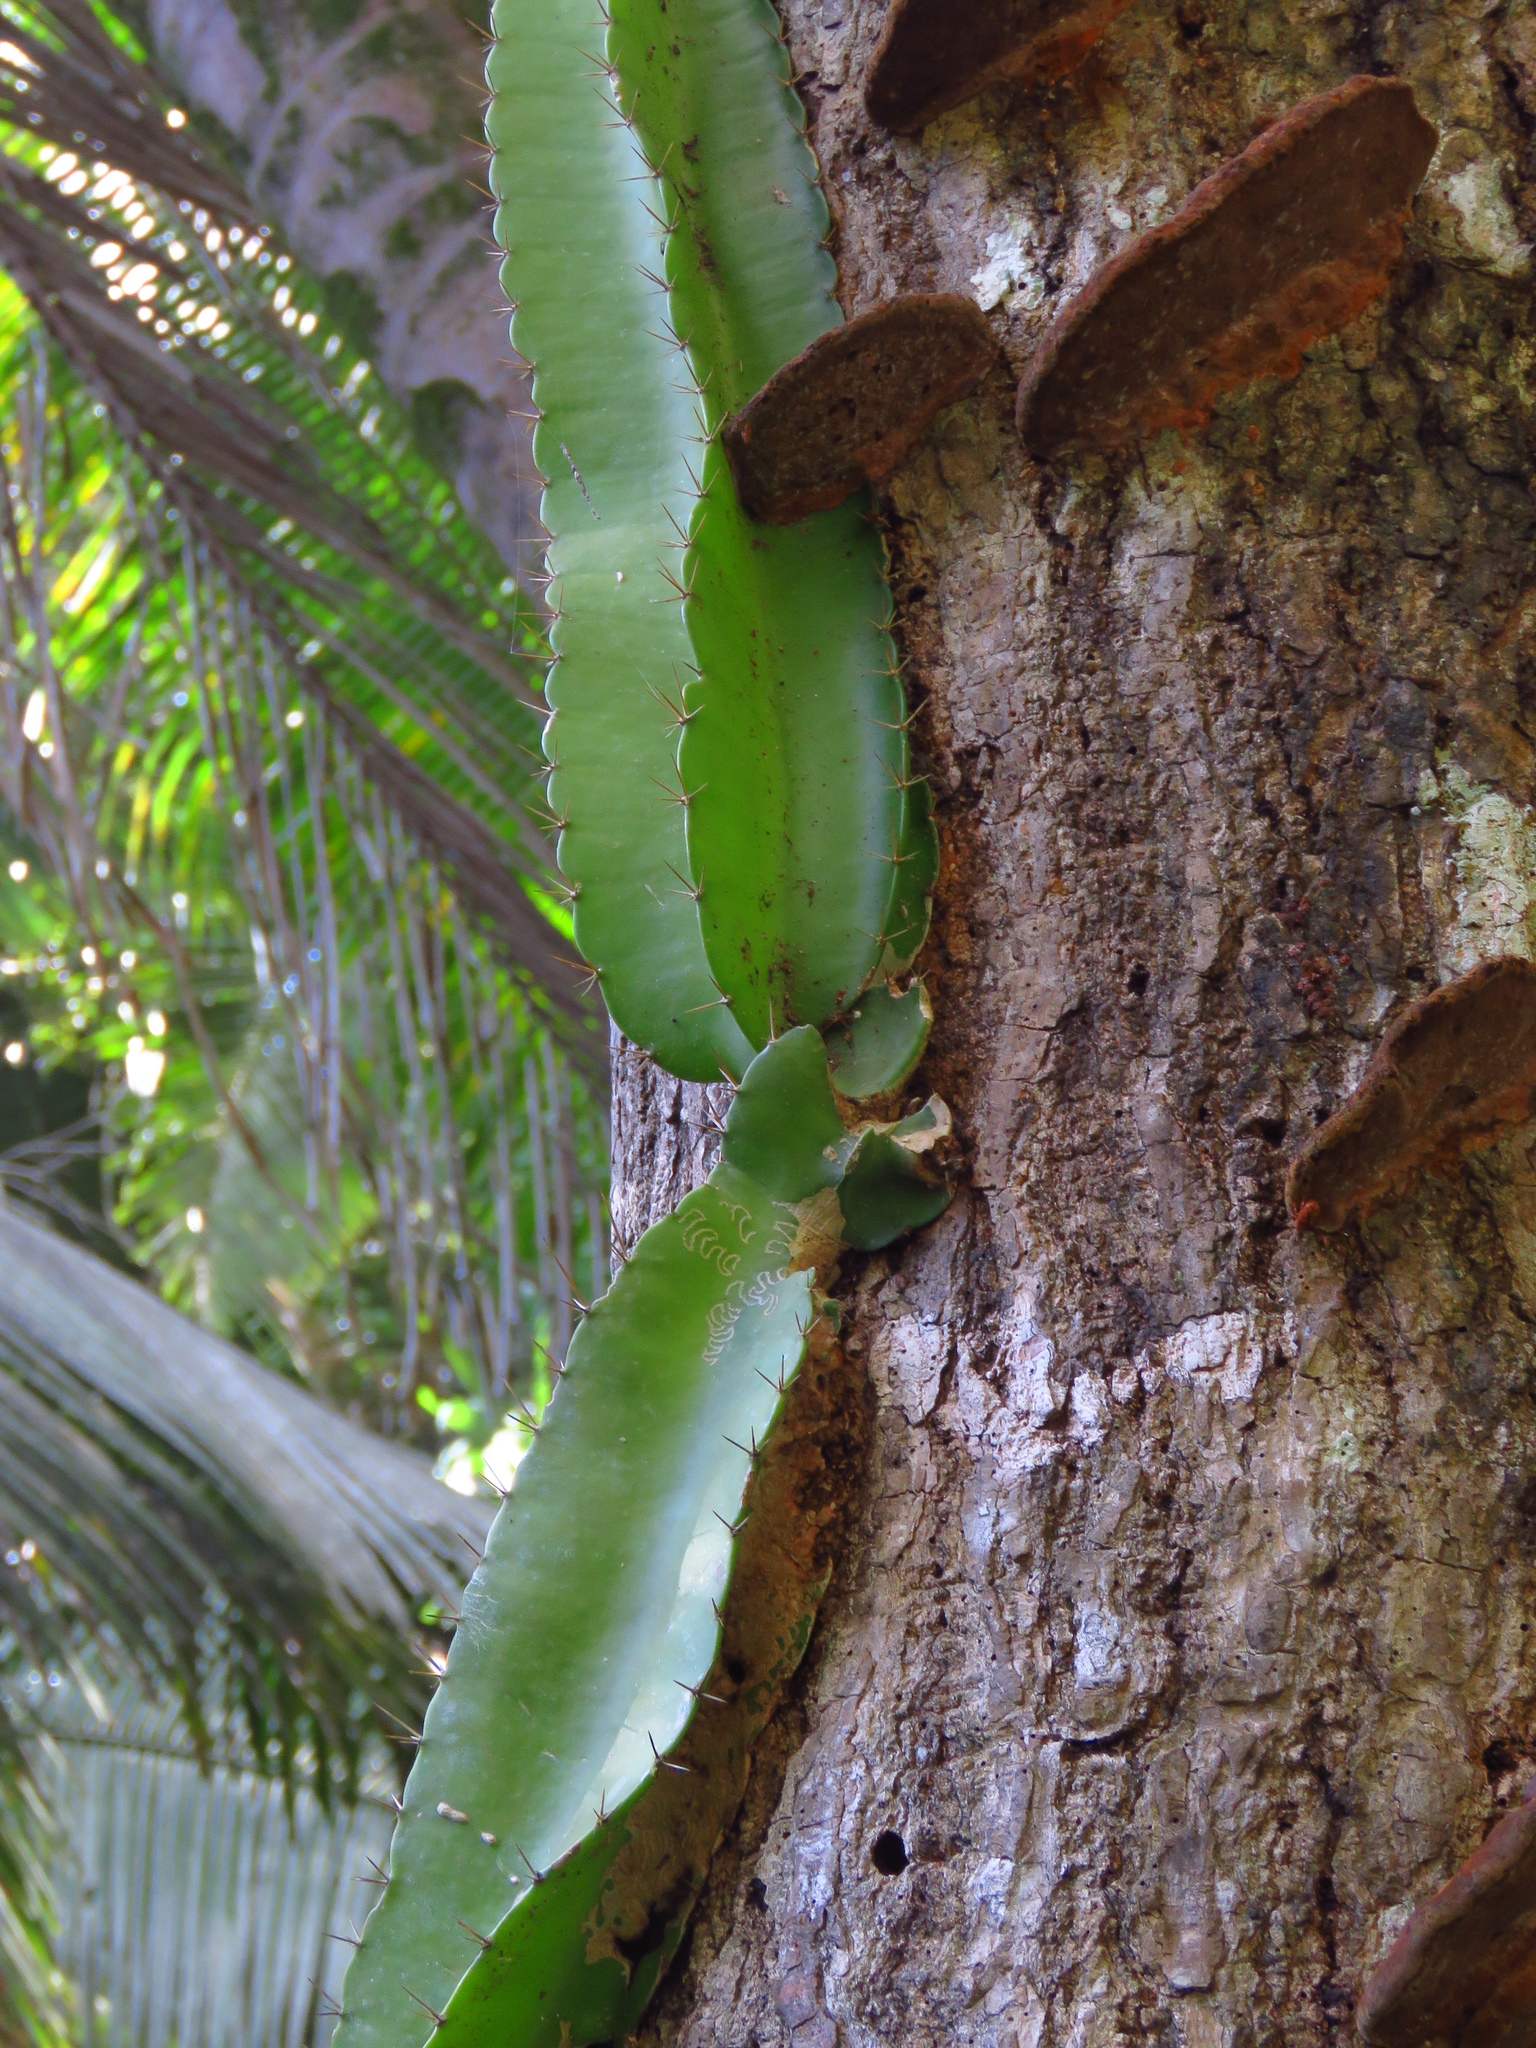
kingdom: Plantae
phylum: Tracheophyta
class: Magnoliopsida
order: Caryophyllales
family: Cactaceae
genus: Deamia
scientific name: Deamia testudo
